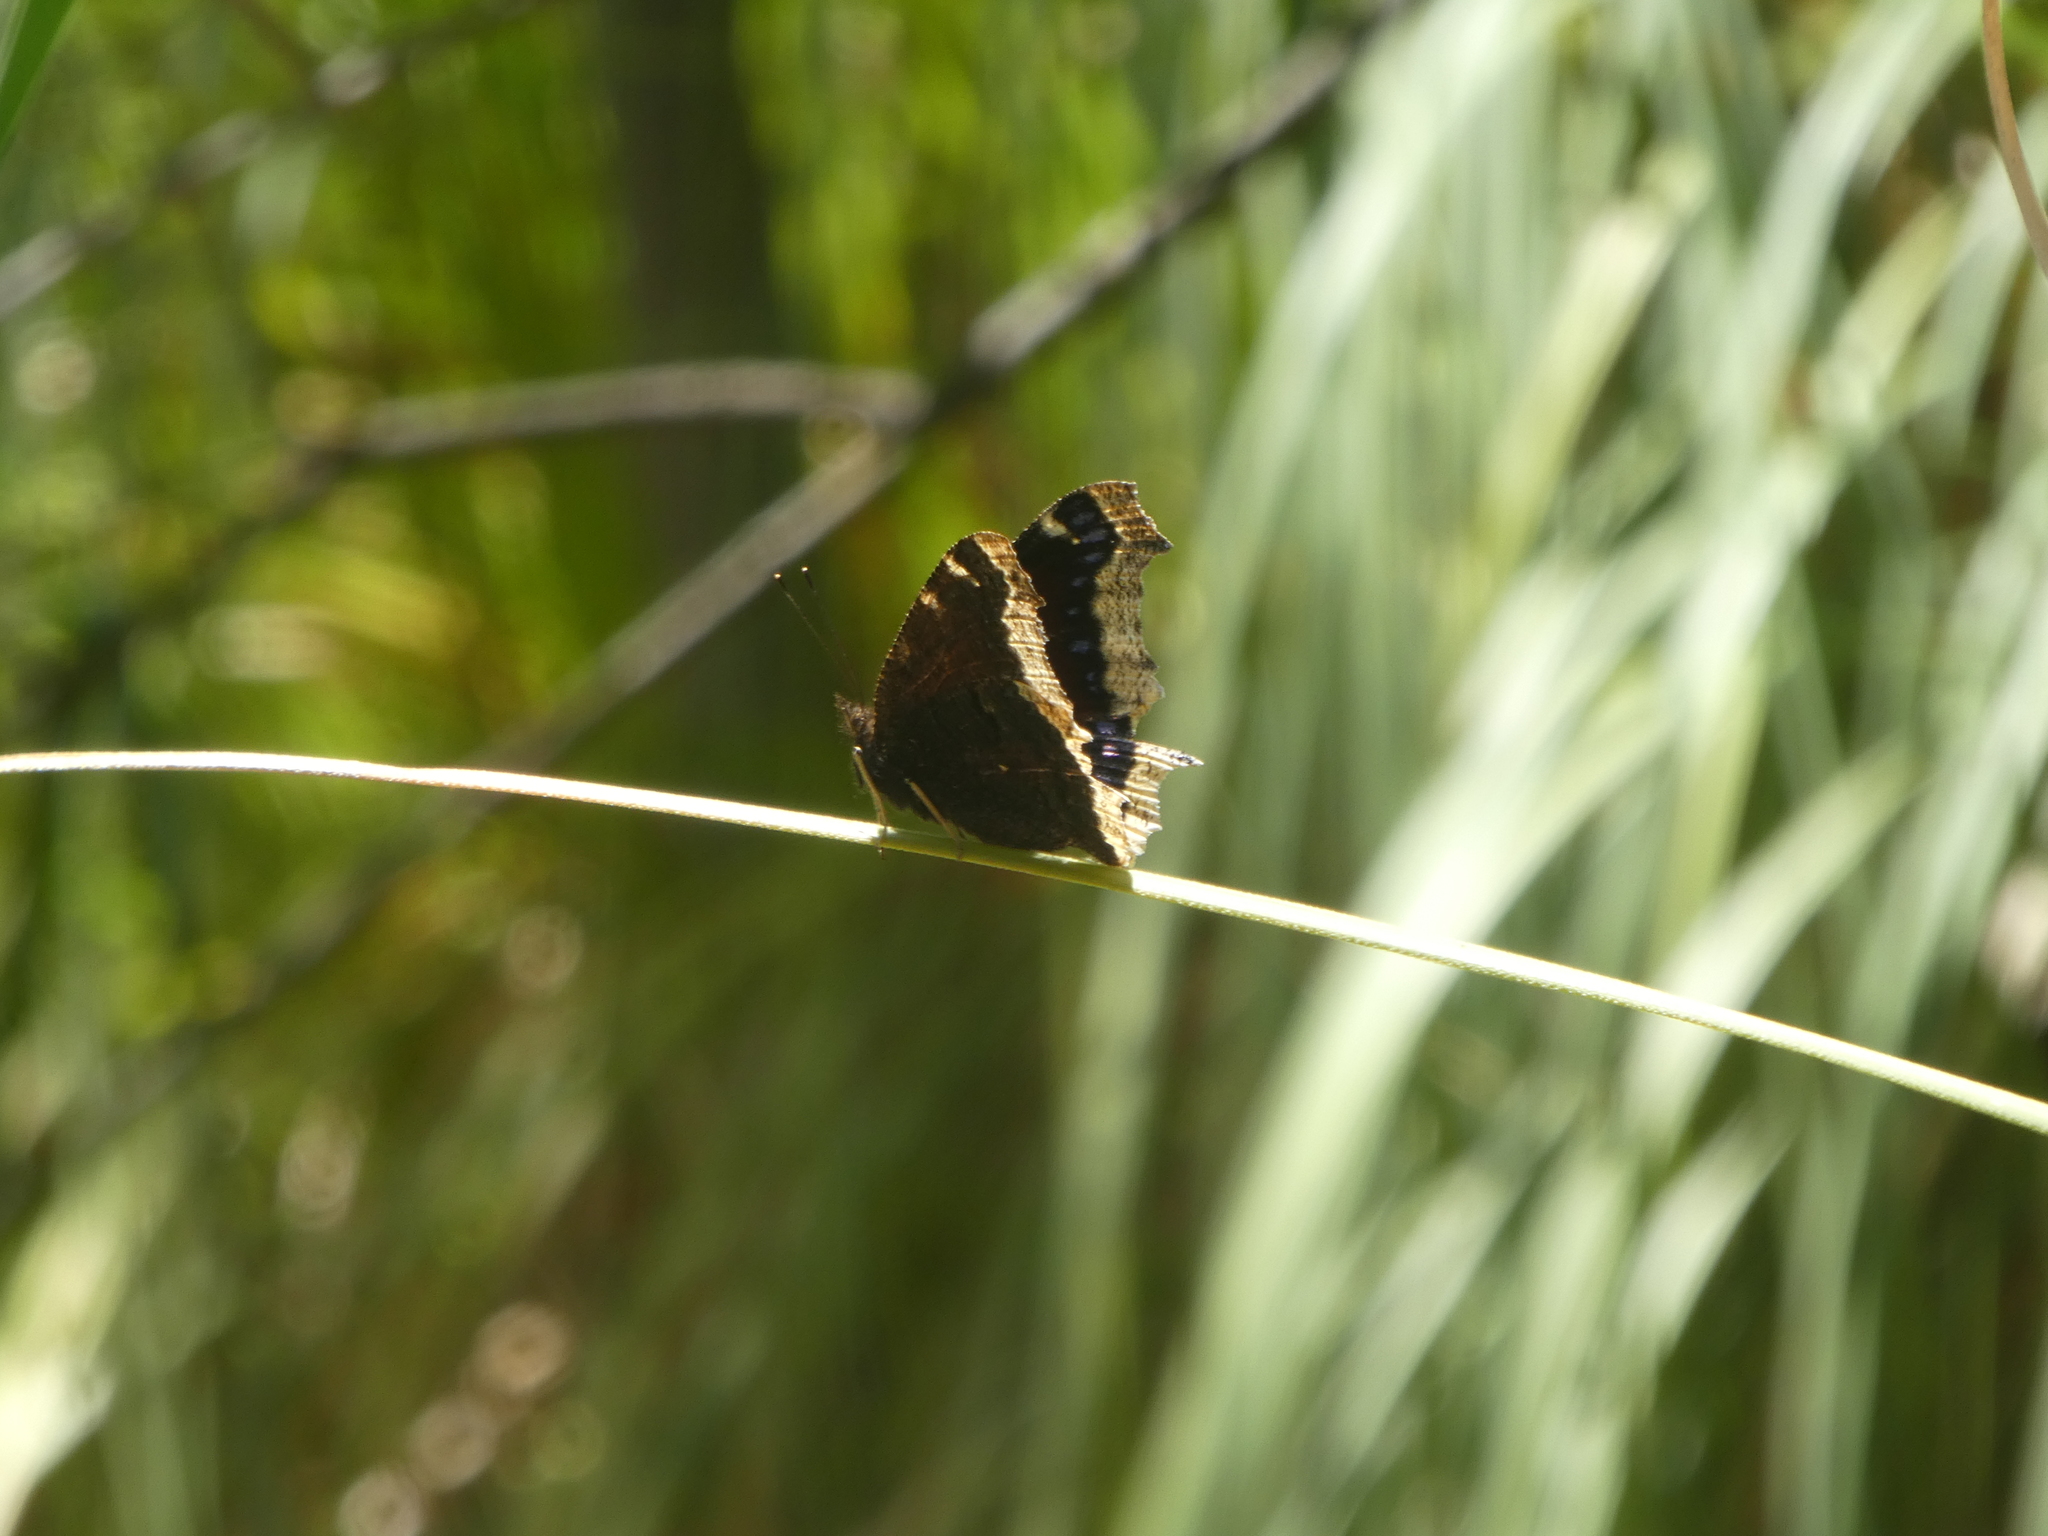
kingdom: Animalia
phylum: Arthropoda
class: Insecta
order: Lepidoptera
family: Nymphalidae
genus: Nymphalis
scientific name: Nymphalis antiopa
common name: Camberwell beauty
